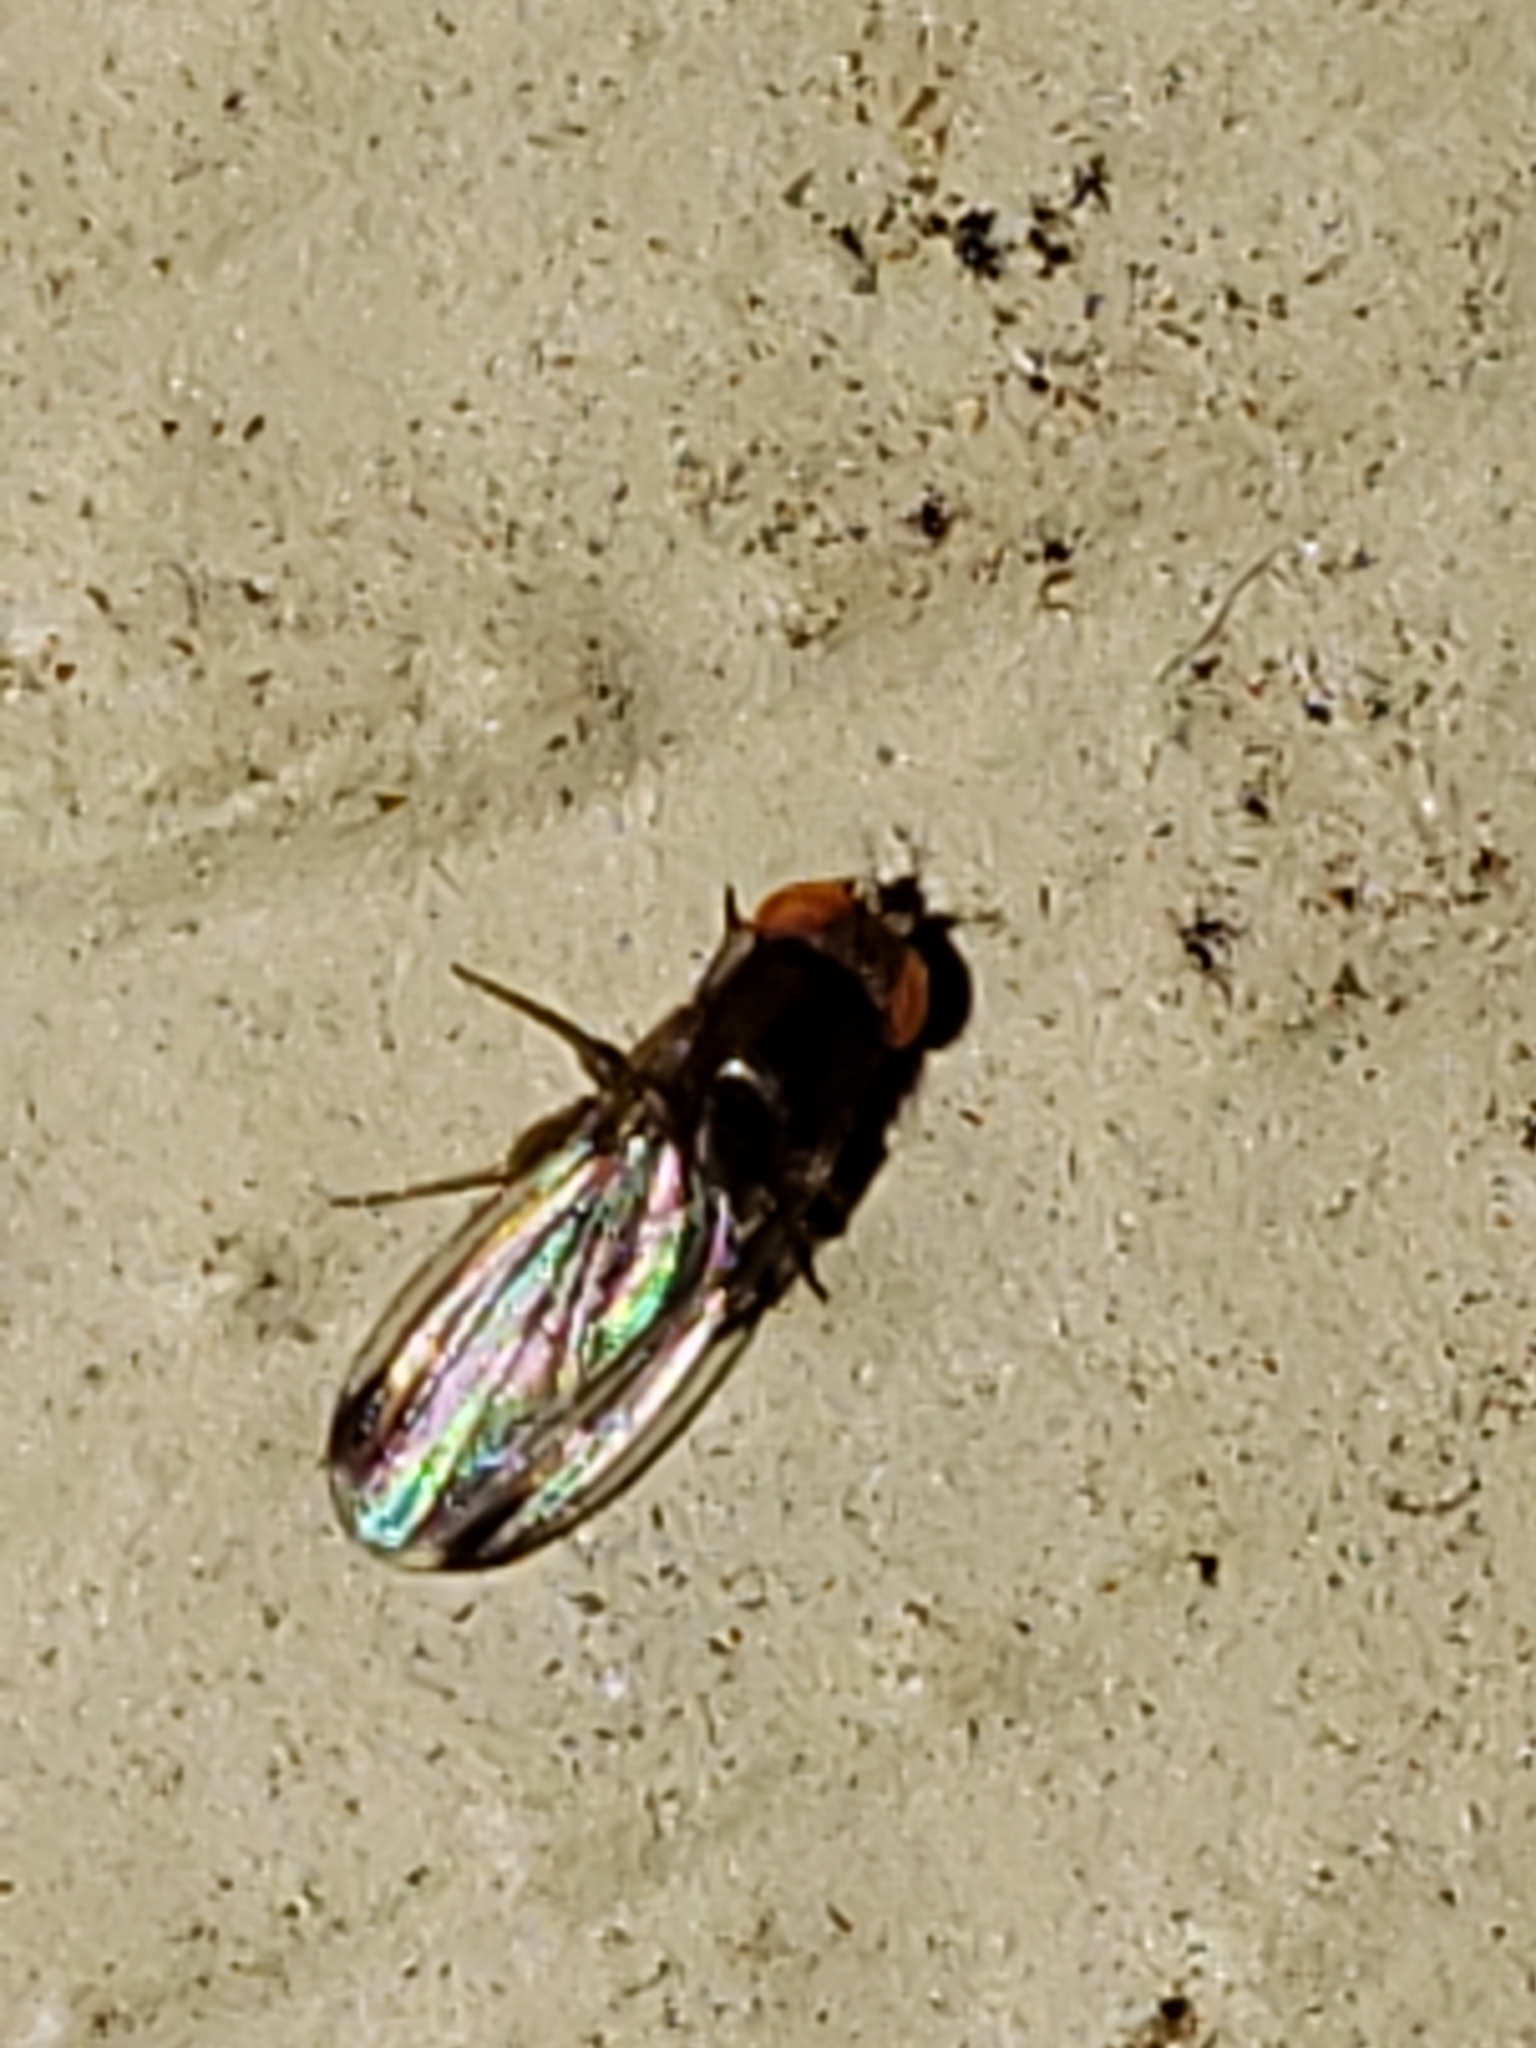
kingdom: Animalia
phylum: Arthropoda
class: Insecta
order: Diptera
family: Drosophilidae
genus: Drosophila
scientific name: Drosophila suzukii
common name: Spotted-wing drosophila
